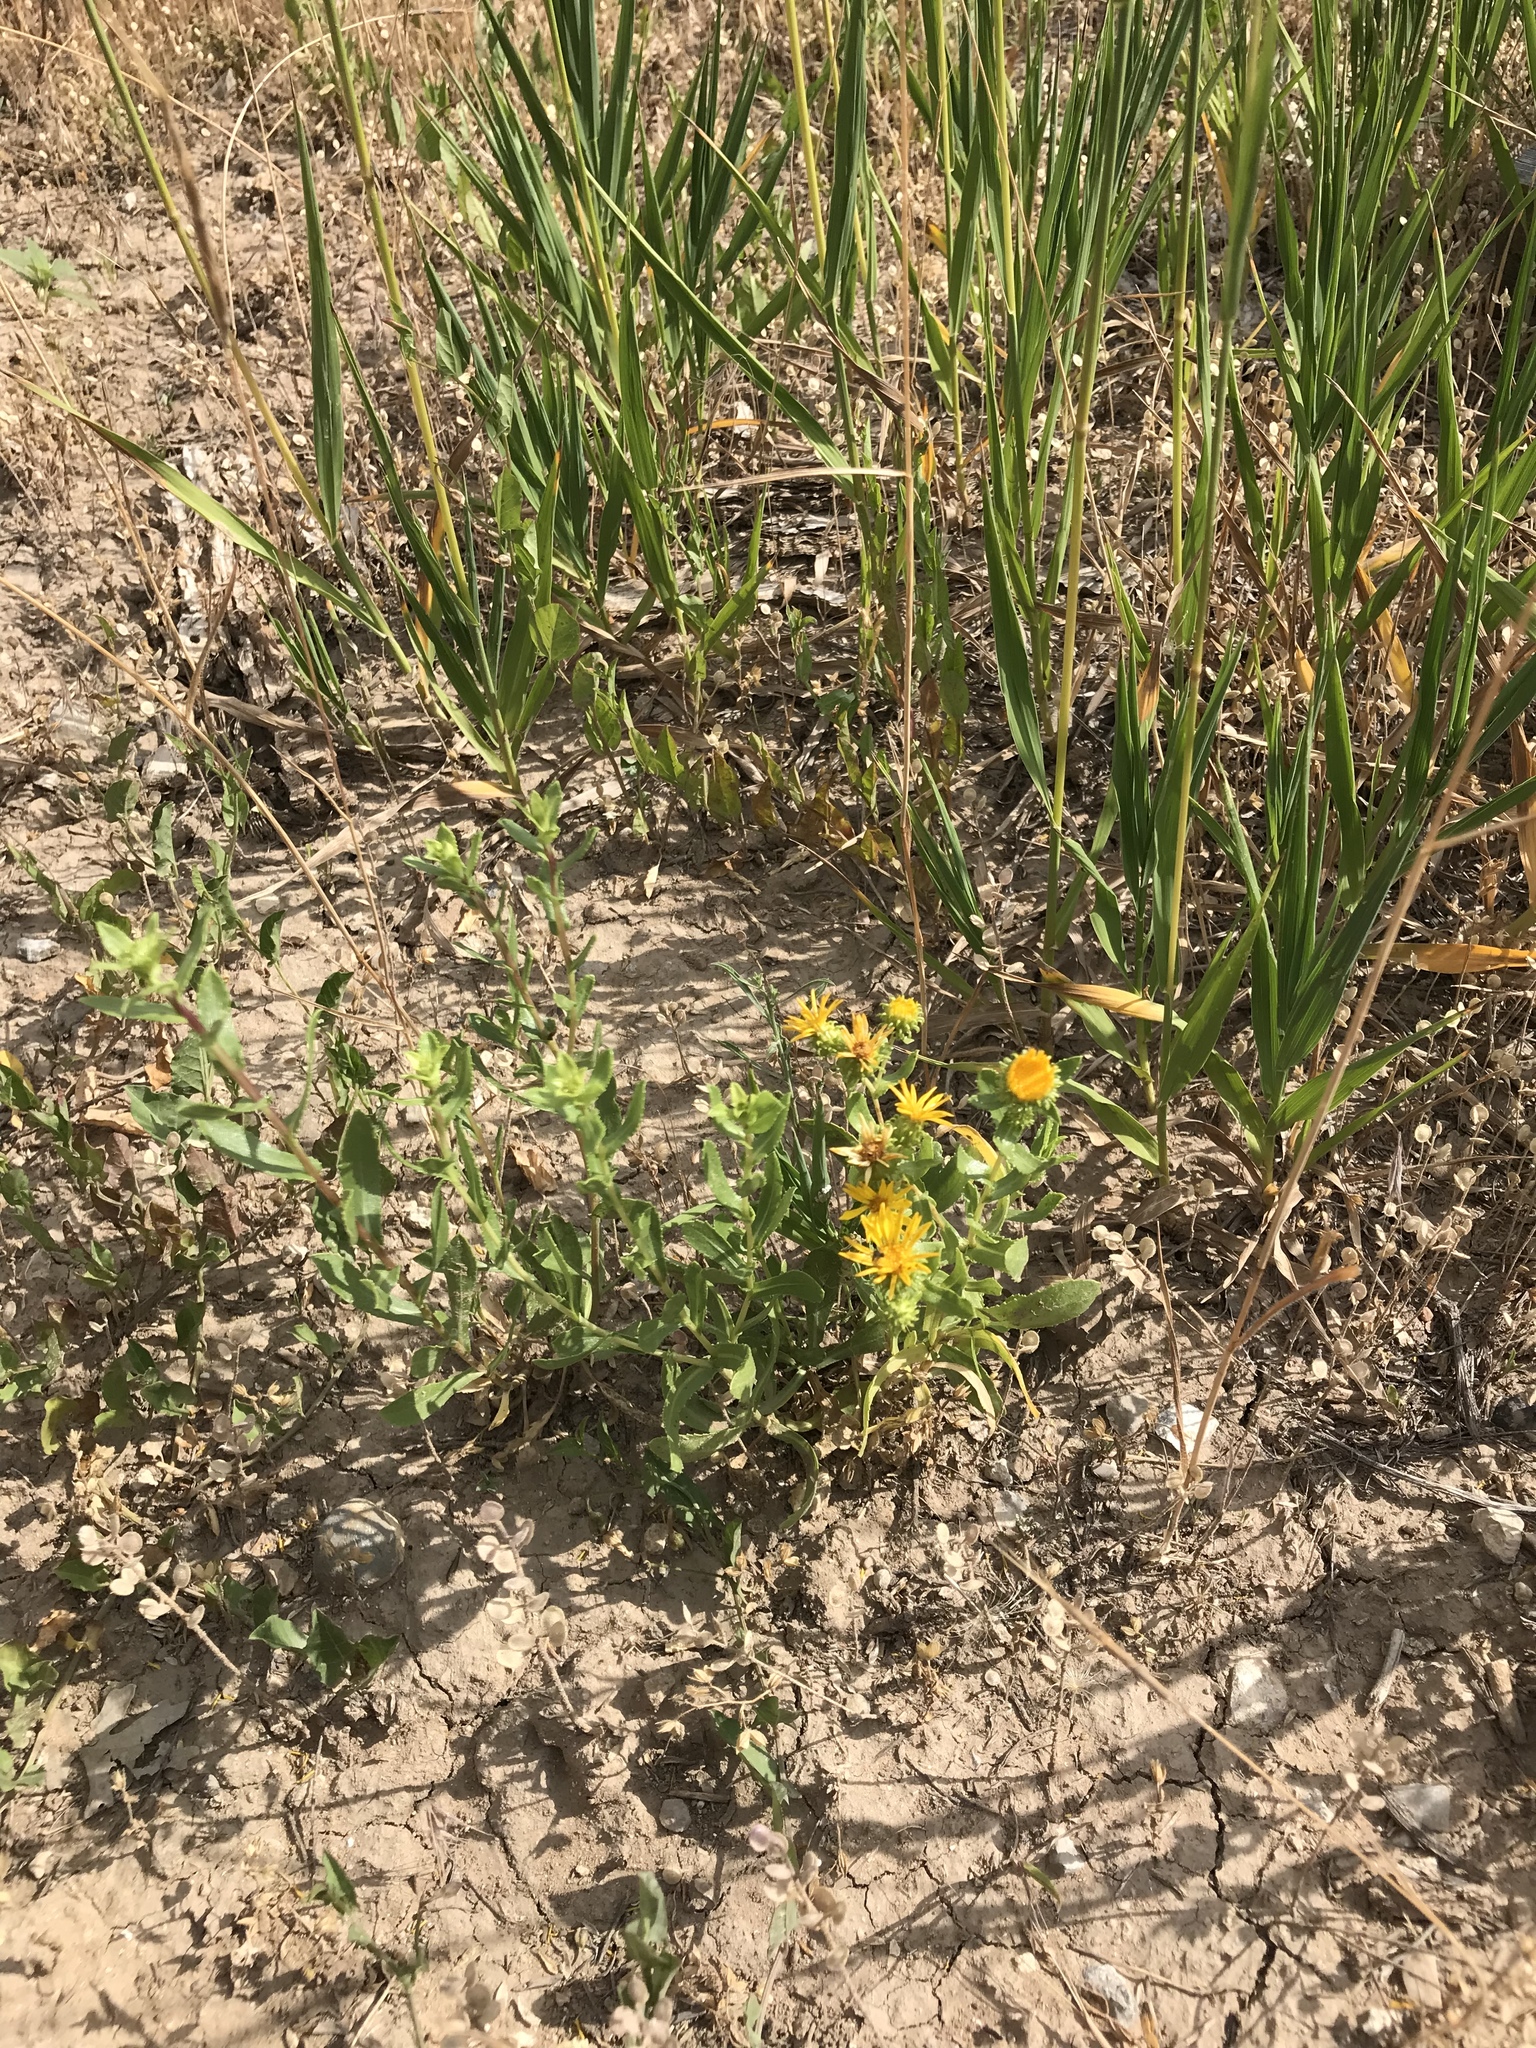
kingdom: Plantae
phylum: Tracheophyta
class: Magnoliopsida
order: Asterales
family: Asteraceae
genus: Grindelia
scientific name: Grindelia squarrosa
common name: Curly-cup gumweed
